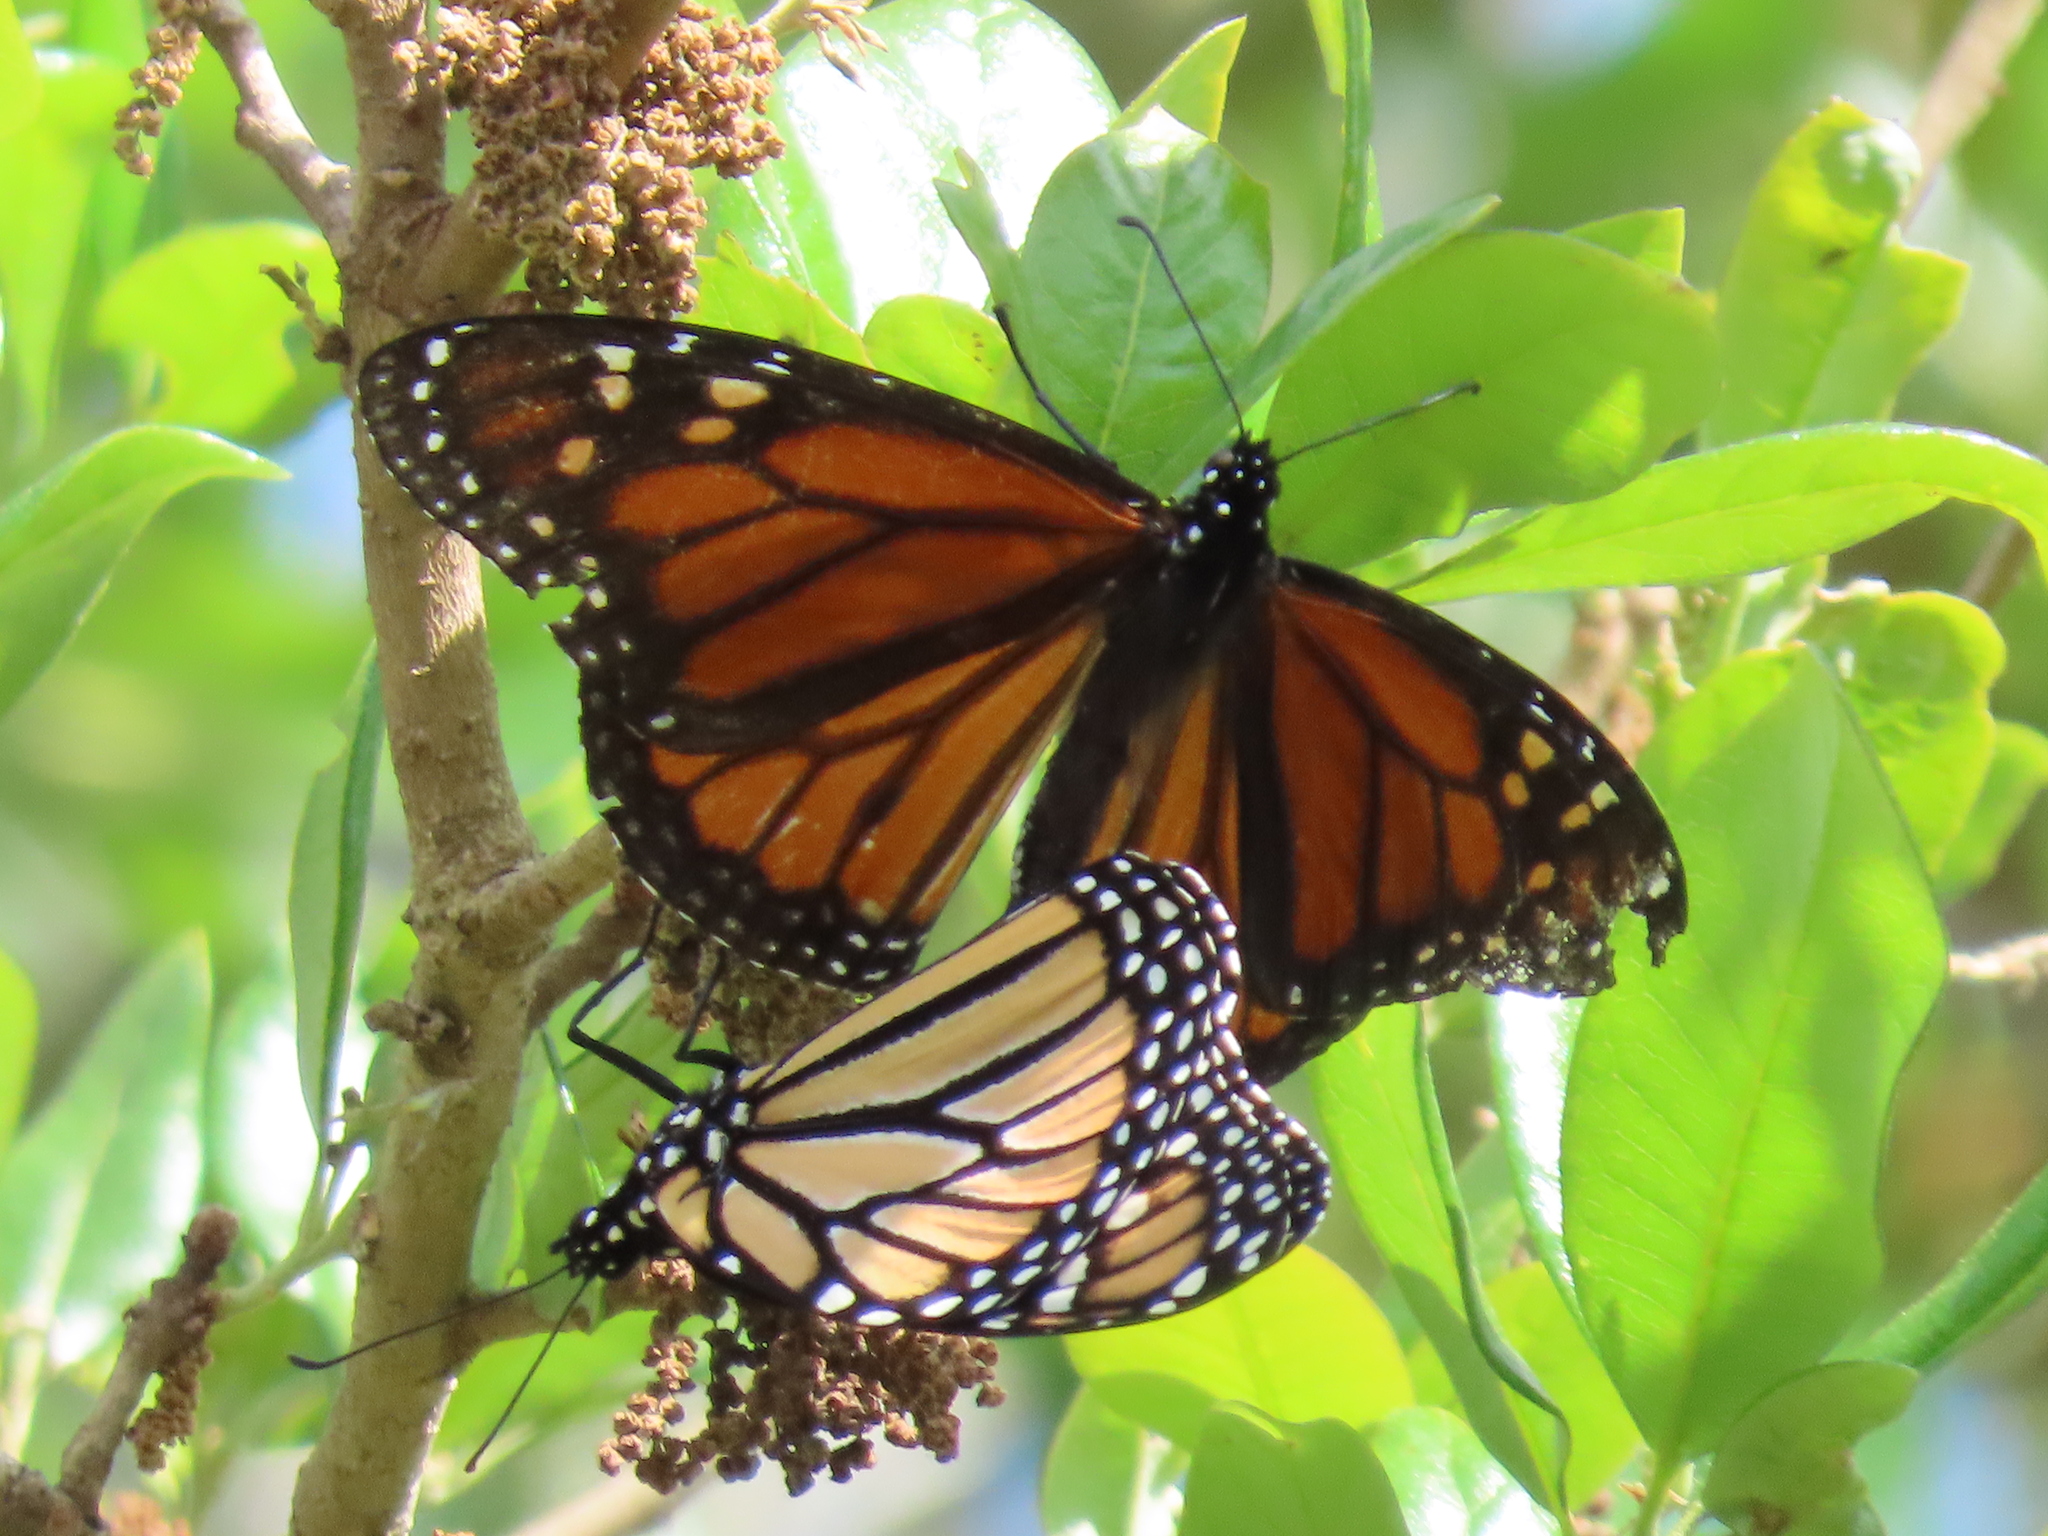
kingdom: Animalia
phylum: Arthropoda
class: Insecta
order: Lepidoptera
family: Nymphalidae
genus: Danaus
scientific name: Danaus plexippus
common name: Monarch
